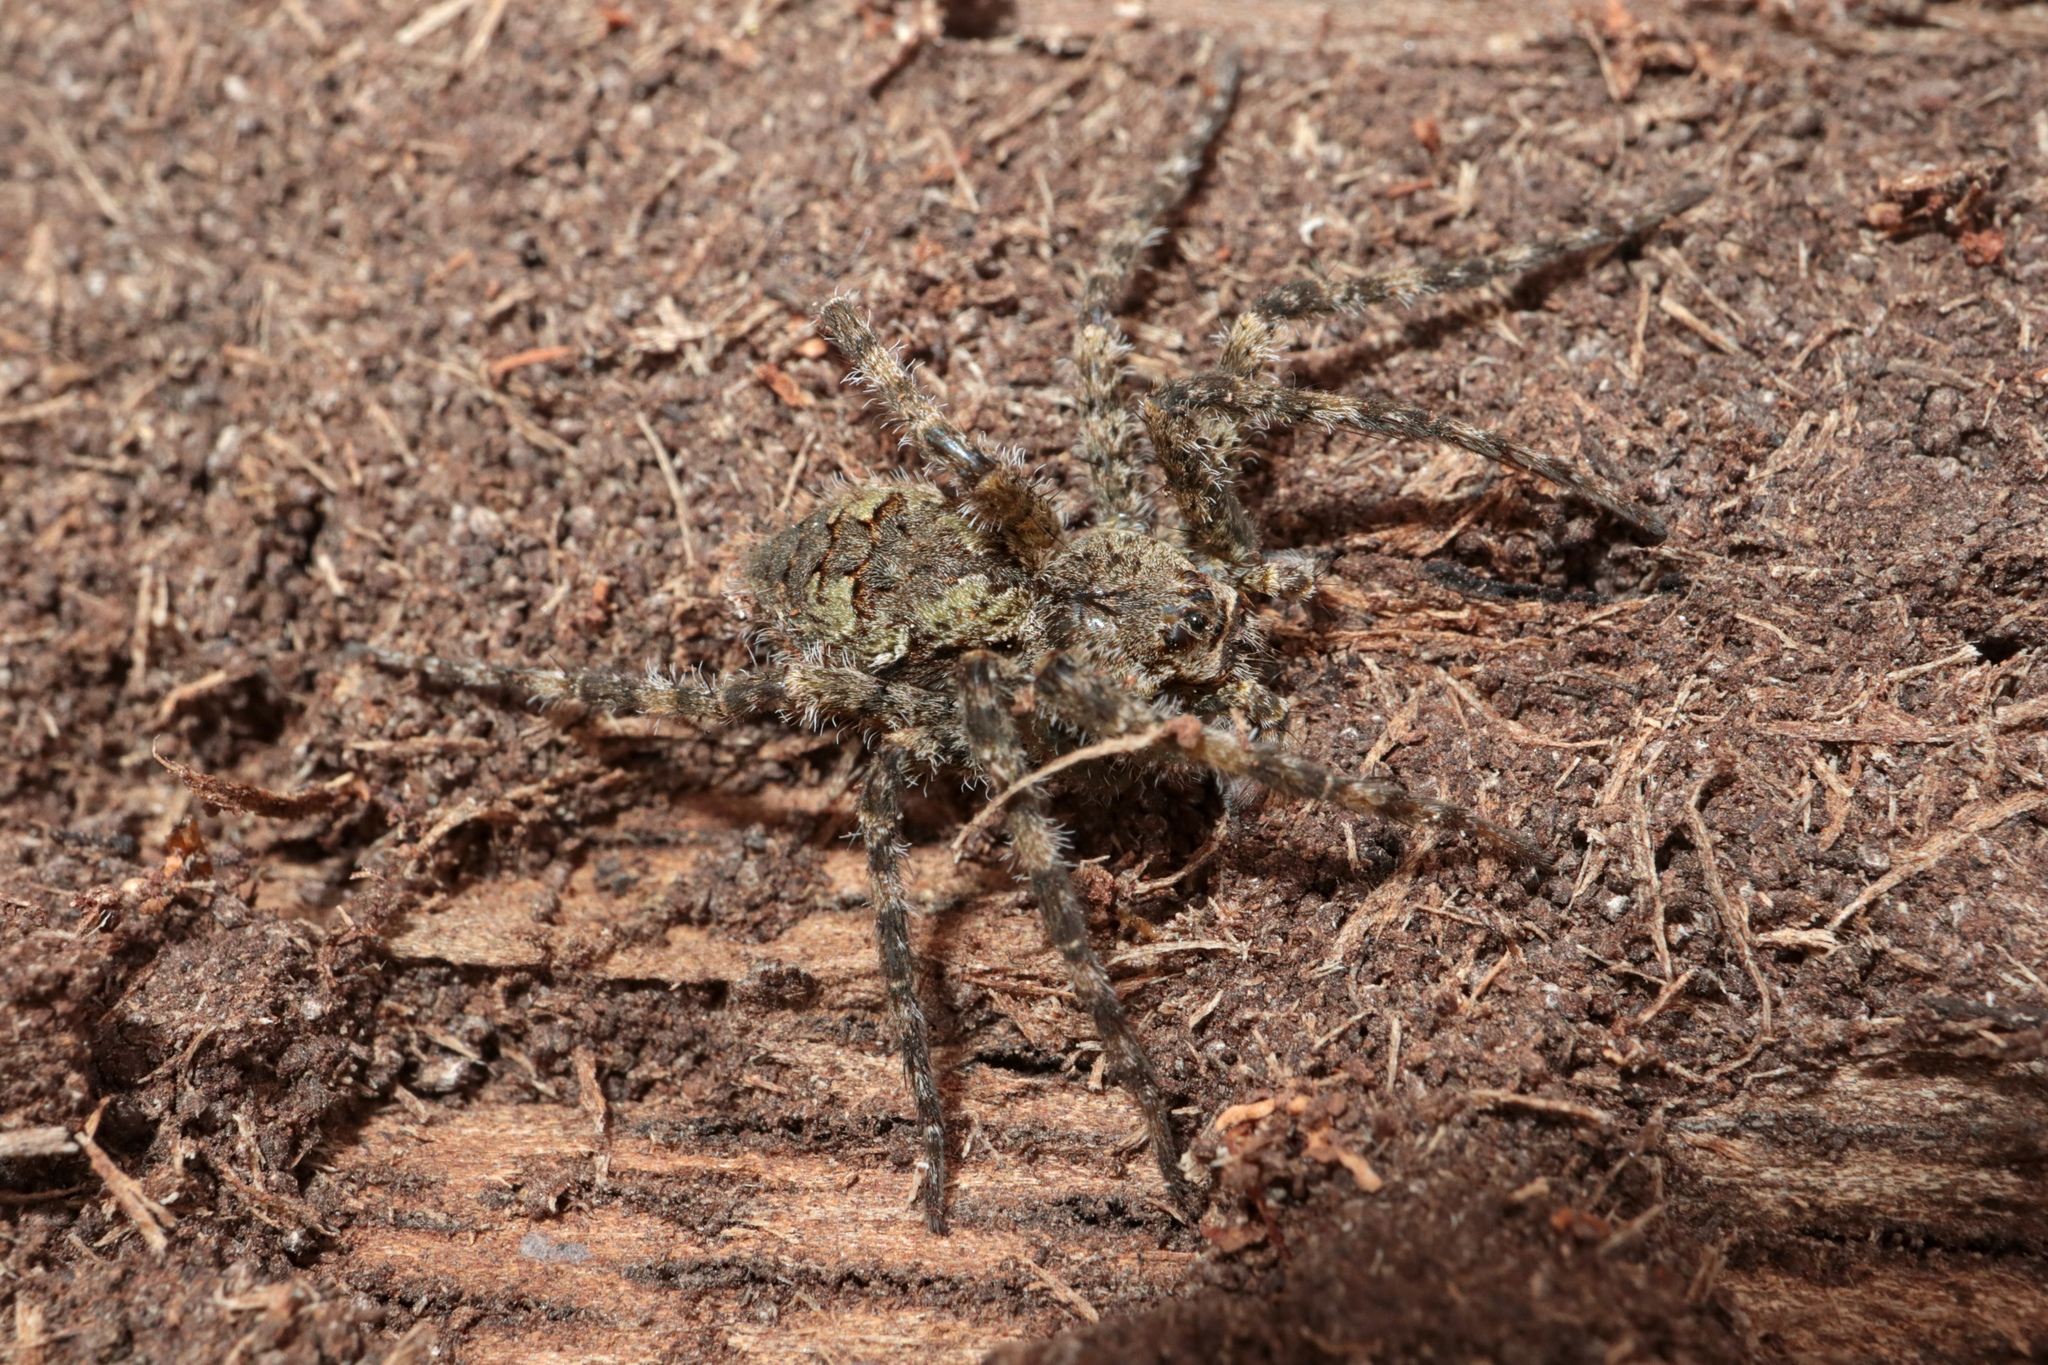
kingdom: Animalia
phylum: Arthropoda
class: Arachnida
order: Araneae
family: Pisauridae
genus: Dolomedes
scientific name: Dolomedes albineus
